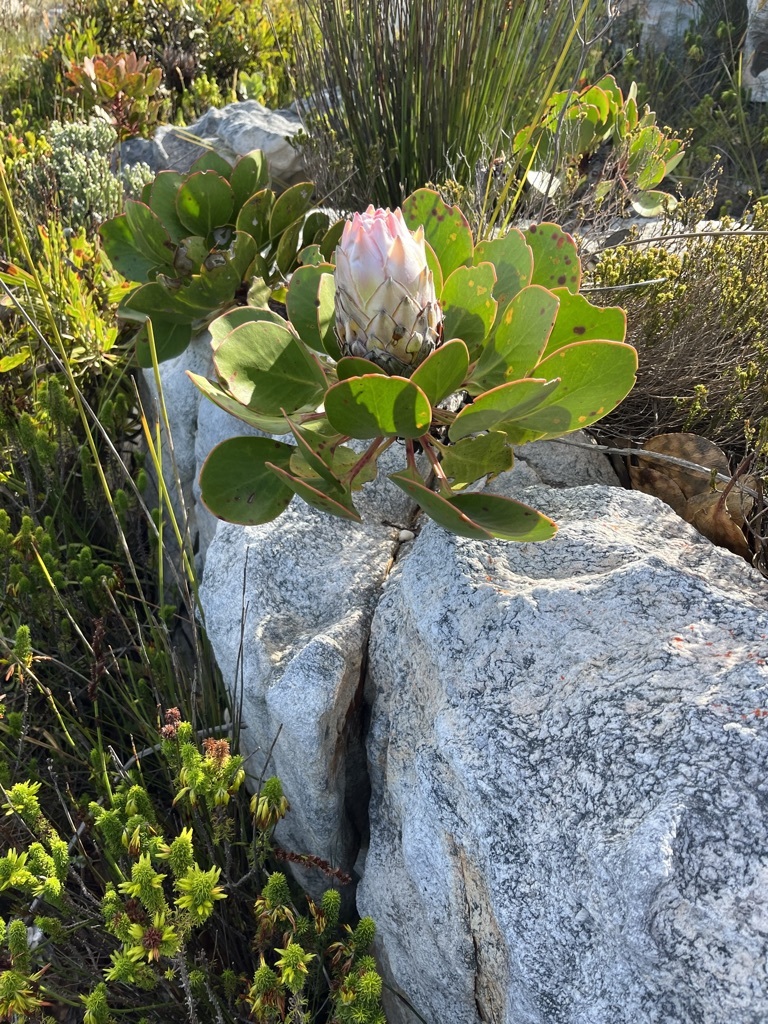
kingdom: Plantae
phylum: Tracheophyta
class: Magnoliopsida
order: Proteales
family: Proteaceae
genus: Protea
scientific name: Protea cynaroides
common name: King protea
